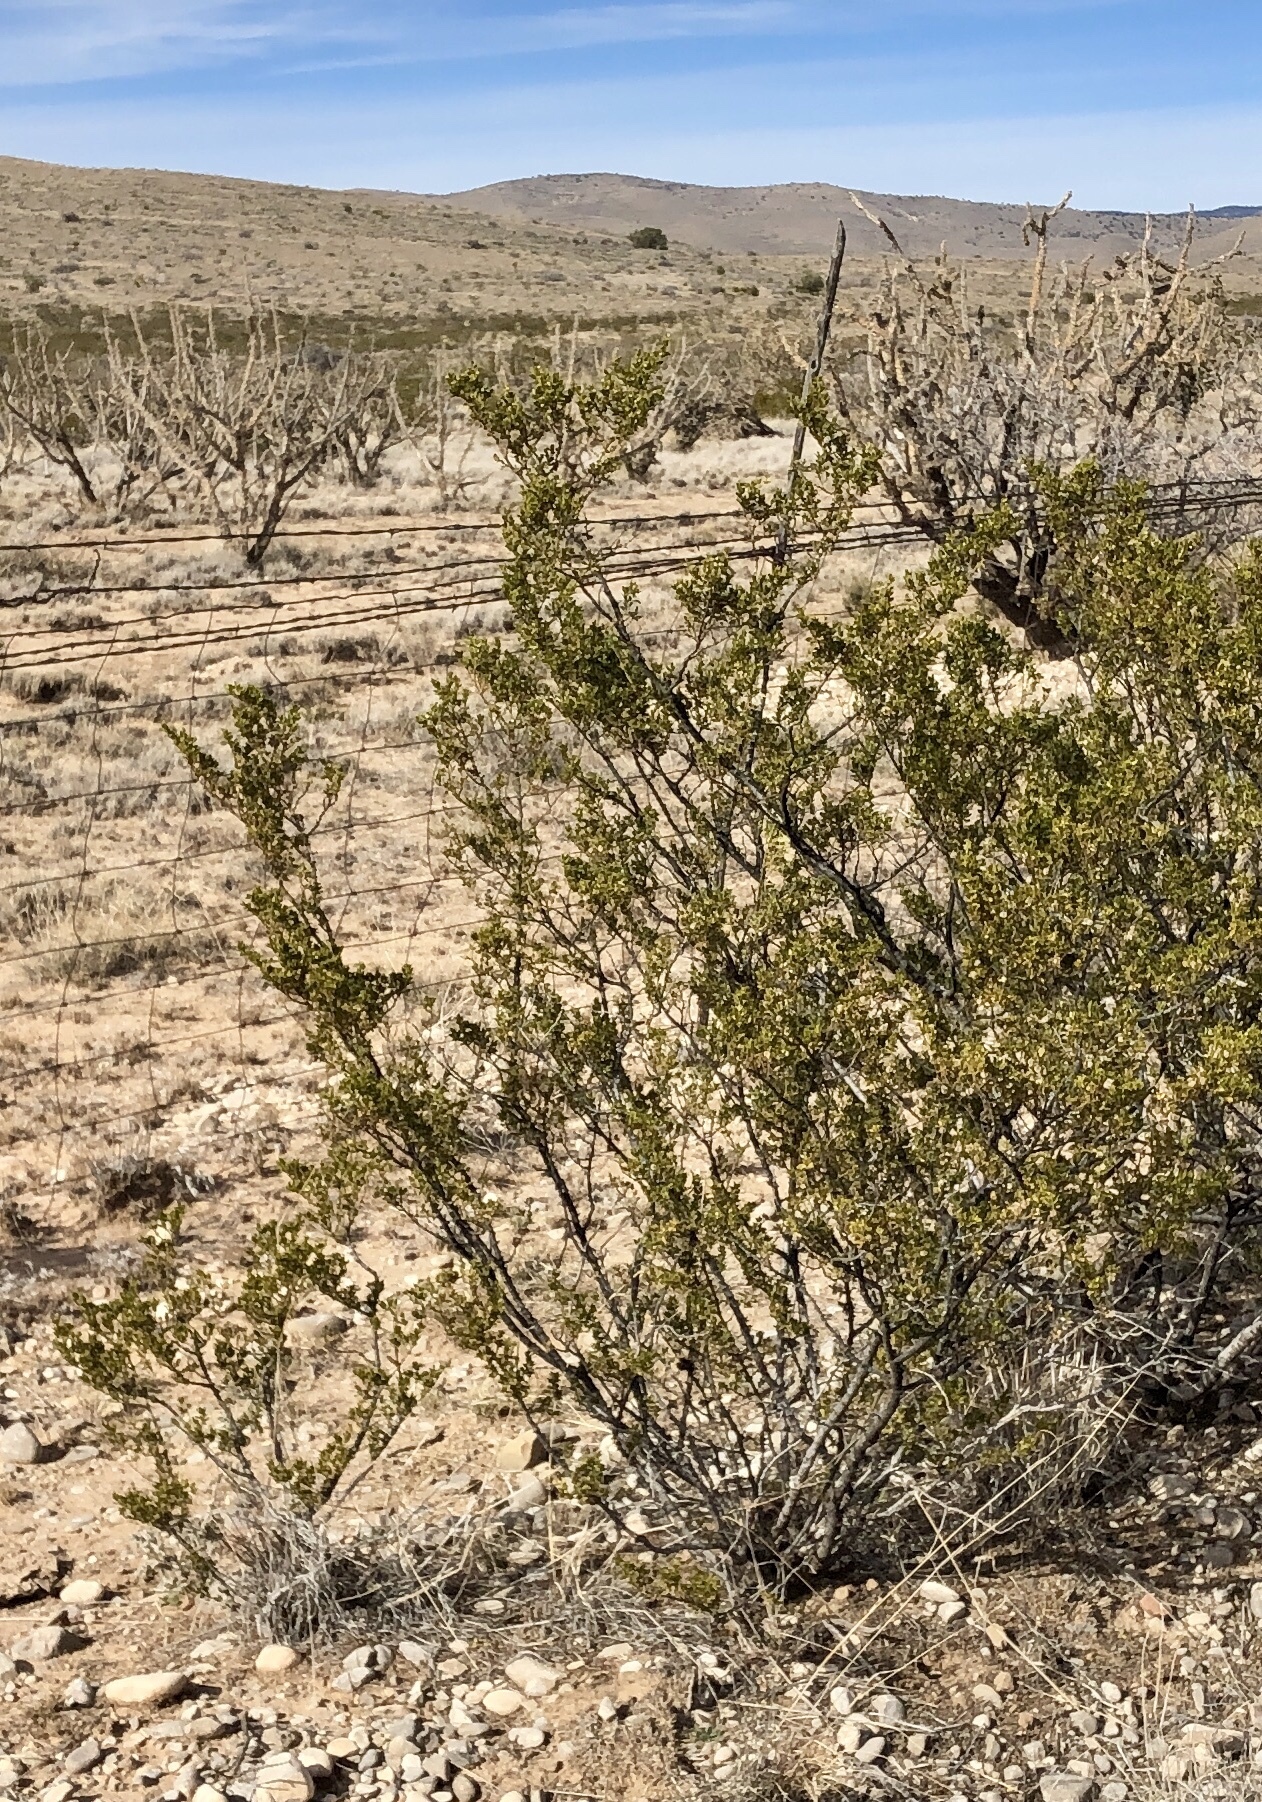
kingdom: Plantae
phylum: Tracheophyta
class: Magnoliopsida
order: Zygophyllales
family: Zygophyllaceae
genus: Larrea
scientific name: Larrea tridentata
